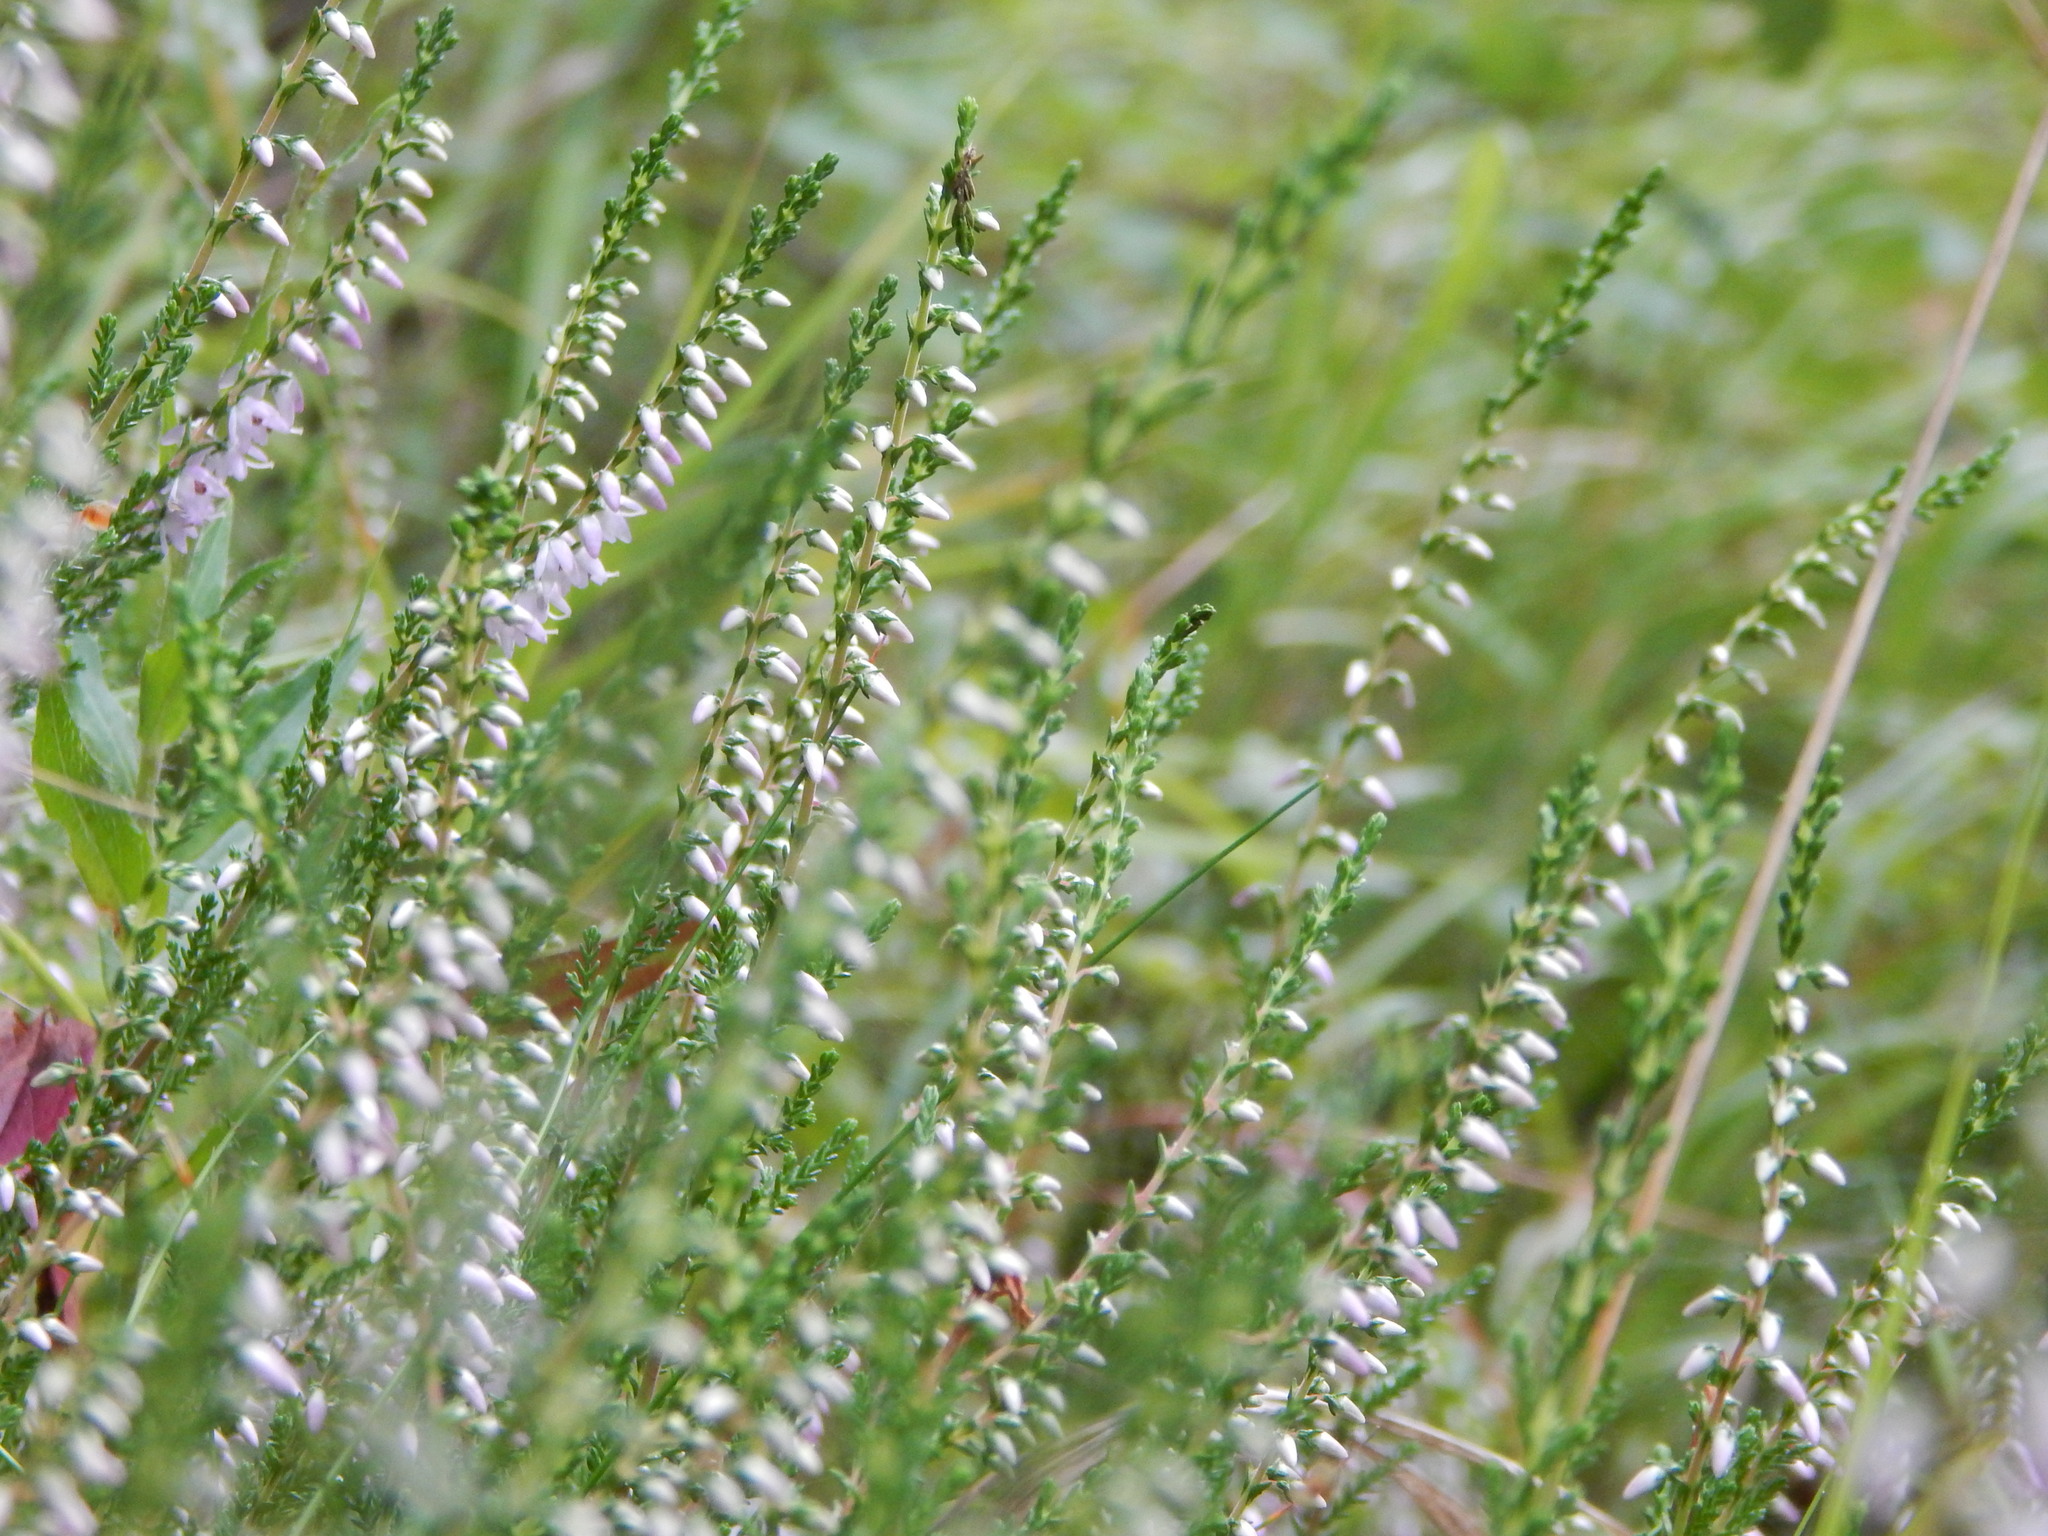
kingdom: Plantae
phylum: Tracheophyta
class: Magnoliopsida
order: Ericales
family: Ericaceae
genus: Calluna
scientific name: Calluna vulgaris
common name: Heather
